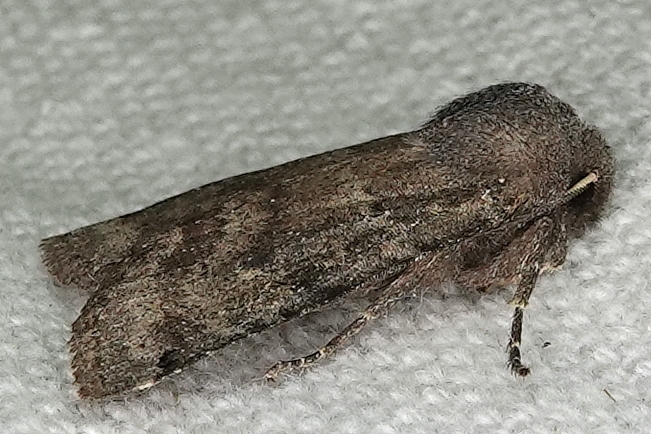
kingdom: Animalia
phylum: Arthropoda
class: Insecta
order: Lepidoptera
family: Noctuidae
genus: Homoglaea
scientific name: Homoglaea carbonaria
